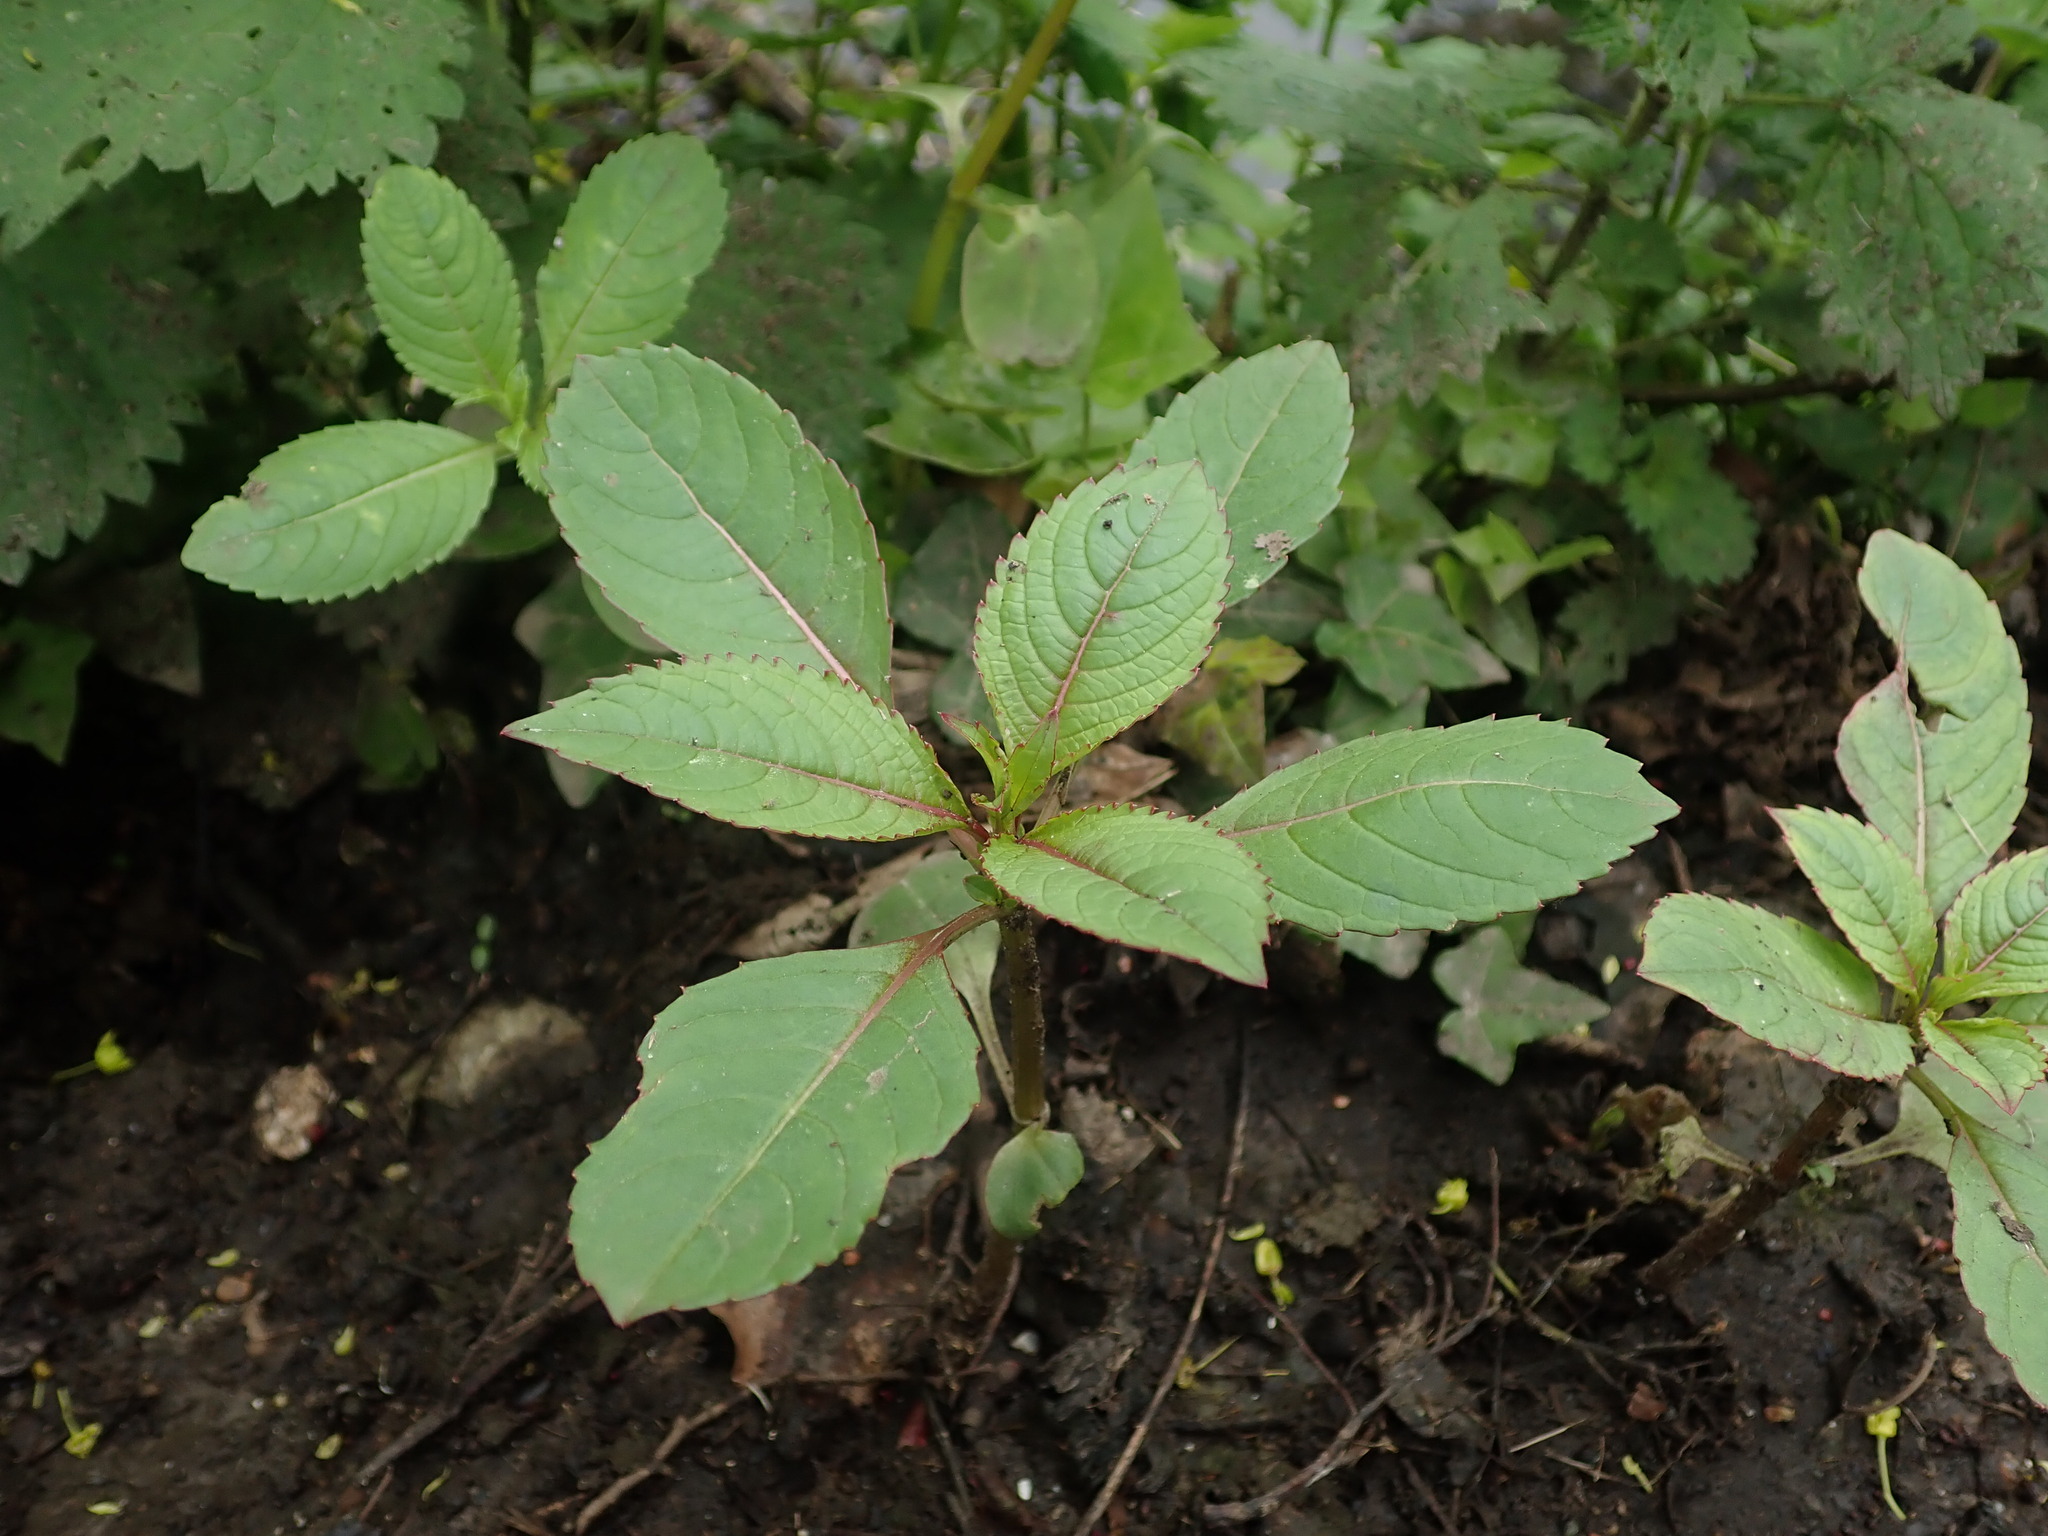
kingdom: Plantae
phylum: Tracheophyta
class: Magnoliopsida
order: Ericales
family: Balsaminaceae
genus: Impatiens
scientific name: Impatiens glandulifera
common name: Himalayan balsam
